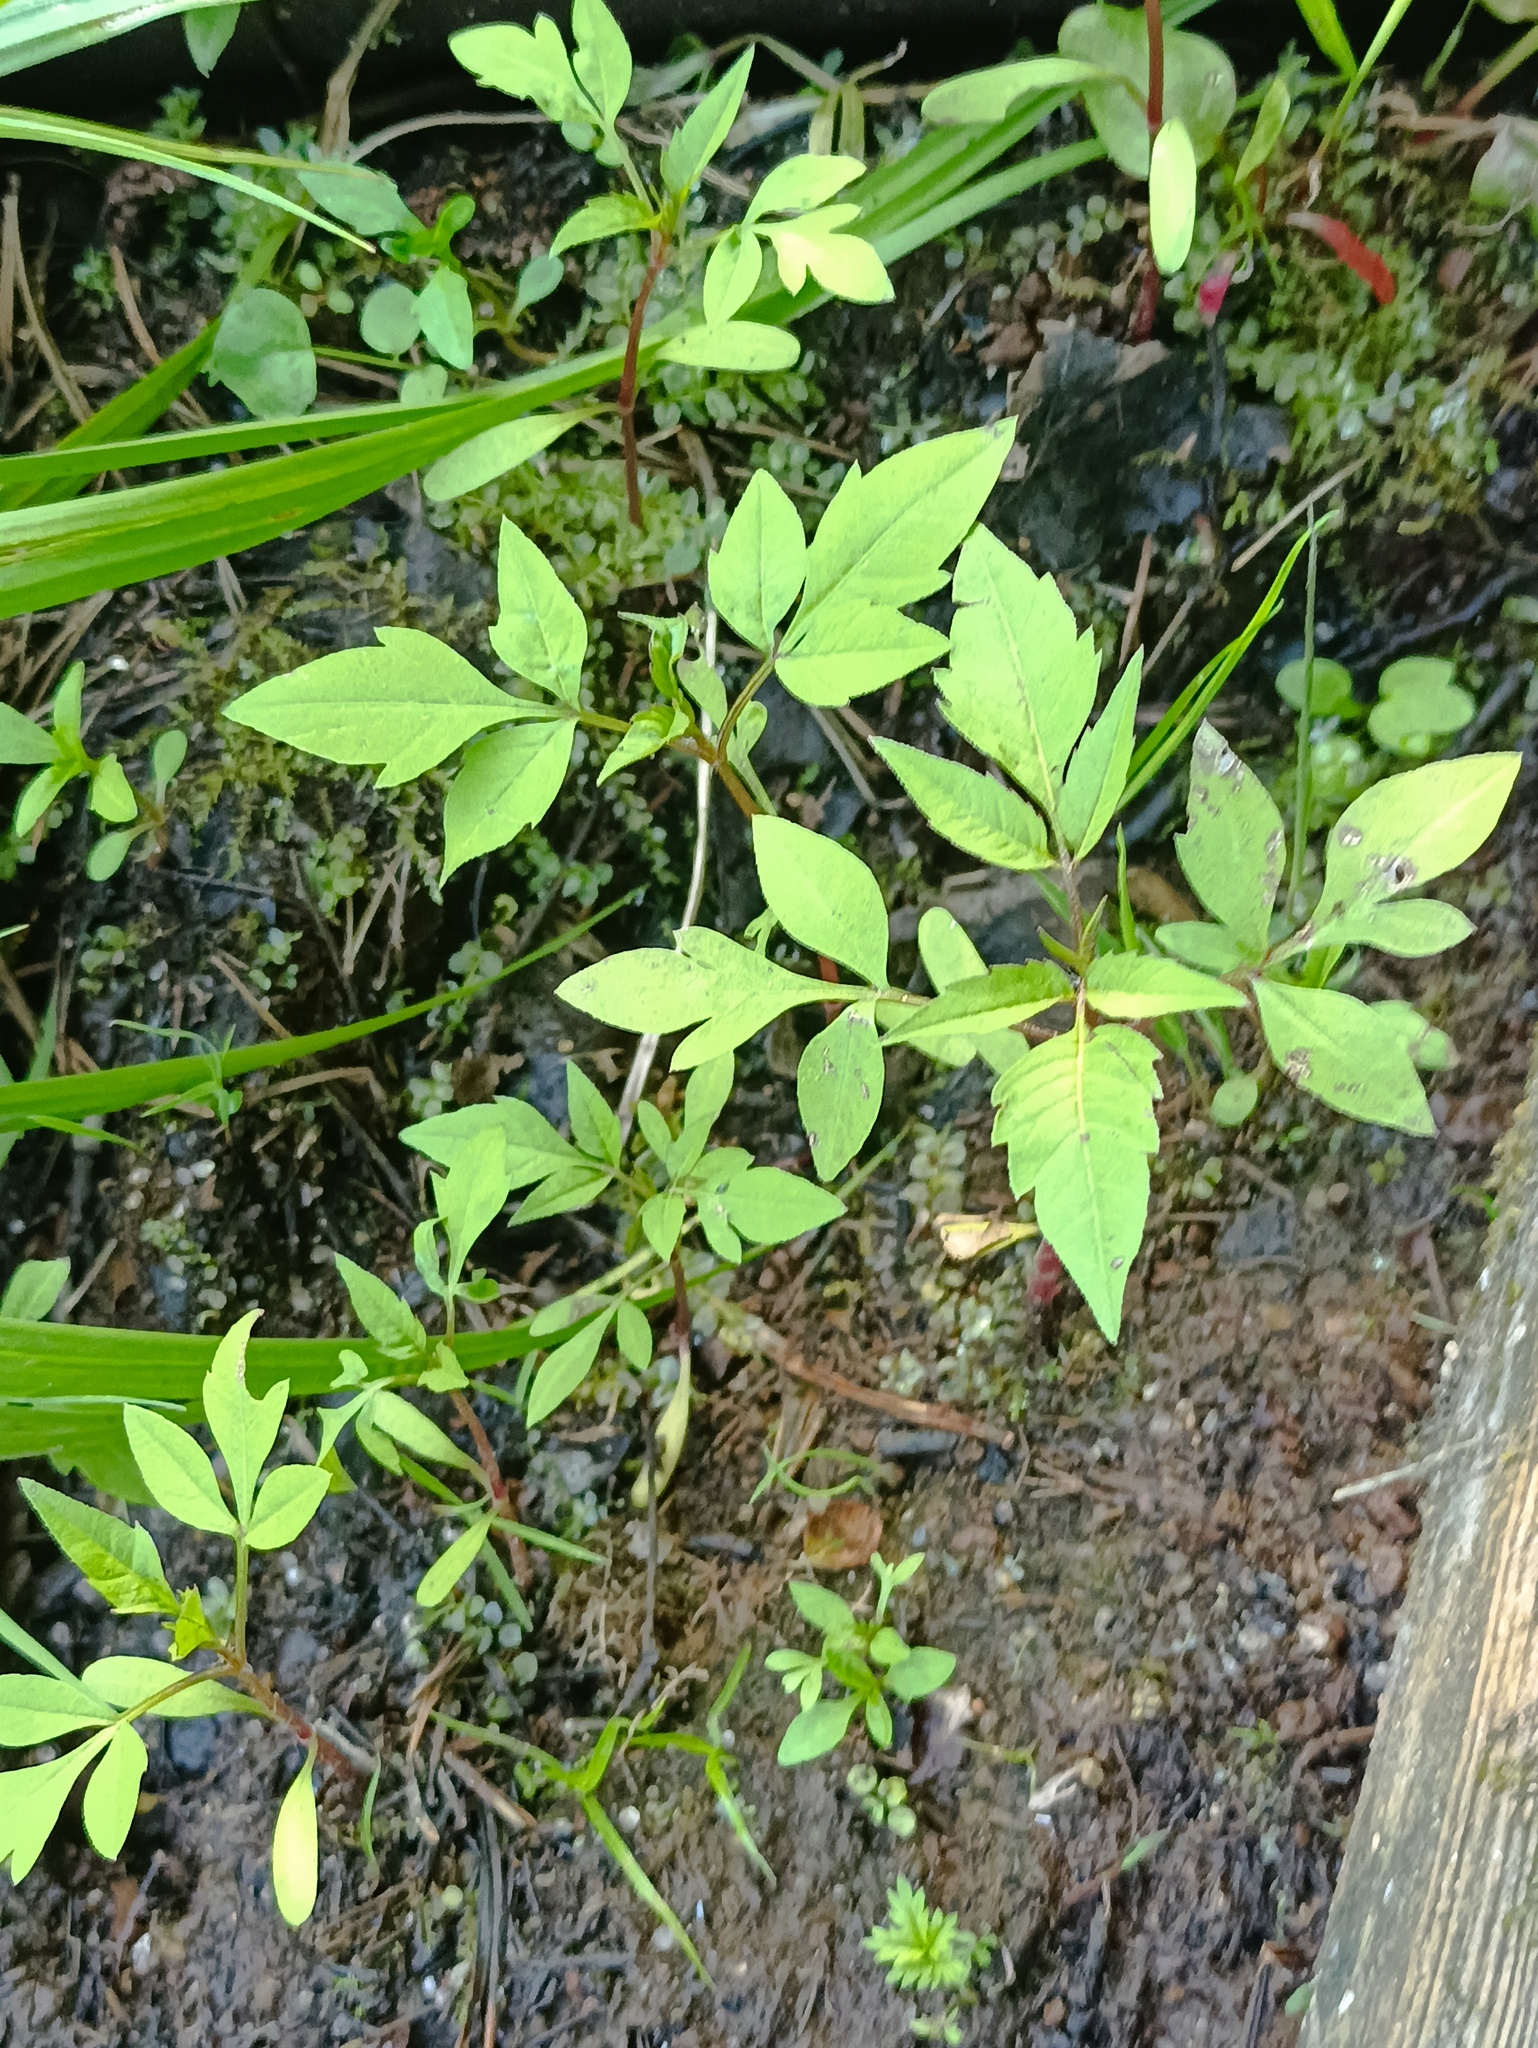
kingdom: Plantae
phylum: Tracheophyta
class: Magnoliopsida
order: Asterales
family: Asteraceae
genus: Bidens
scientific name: Bidens frondosa
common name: Beggarticks
